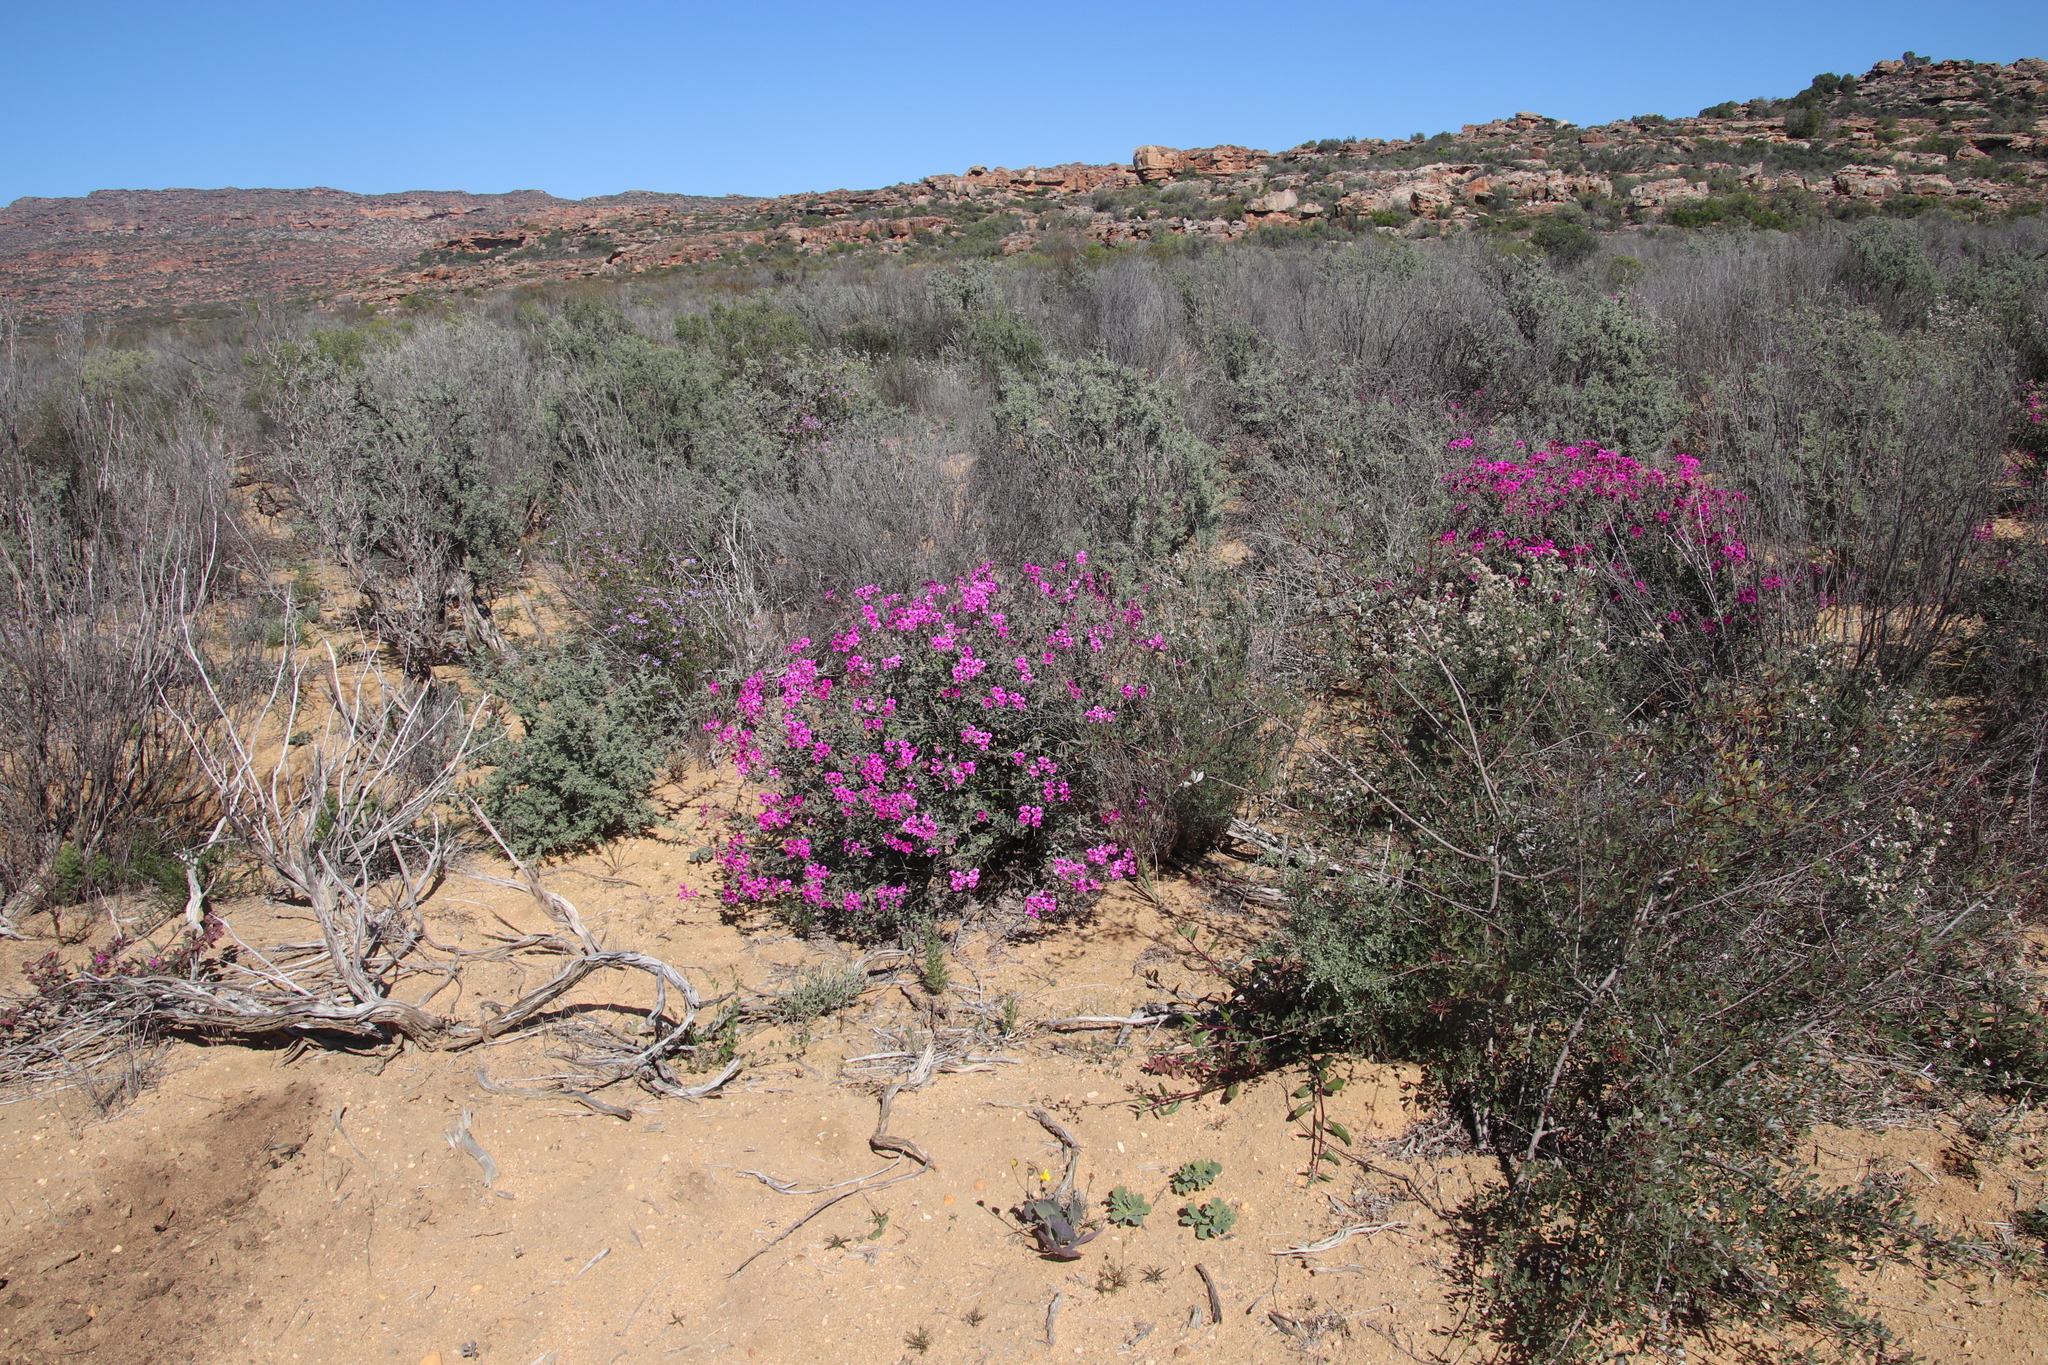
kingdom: Plantae
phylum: Tracheophyta
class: Magnoliopsida
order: Geraniales
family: Geraniaceae
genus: Pelargonium
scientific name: Pelargonium magenteum
